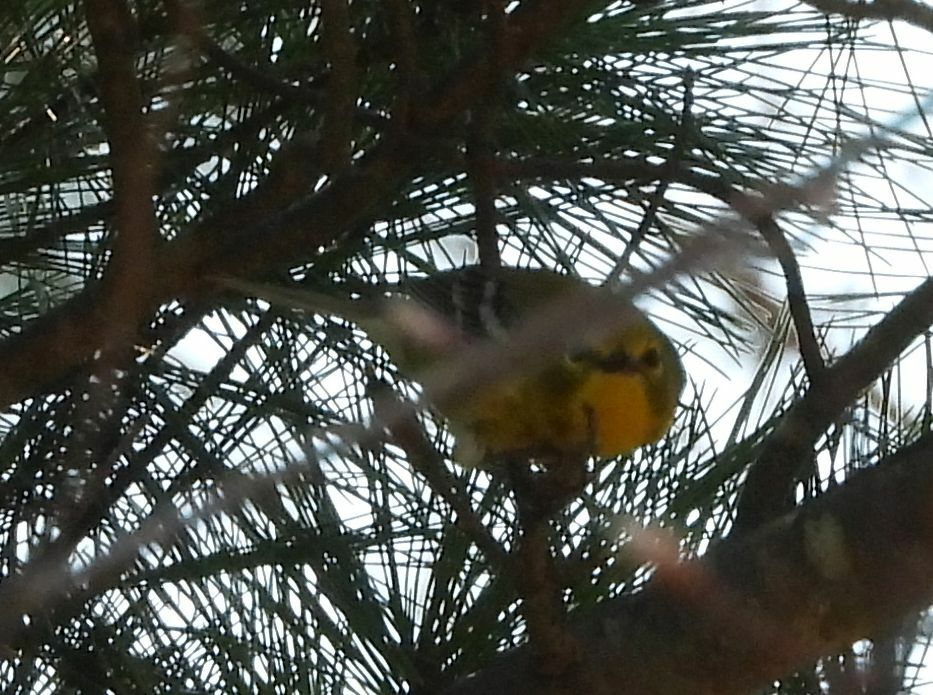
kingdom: Animalia
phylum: Chordata
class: Aves
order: Passeriformes
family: Parulidae
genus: Setophaga
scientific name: Setophaga pinus
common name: Pine warbler
